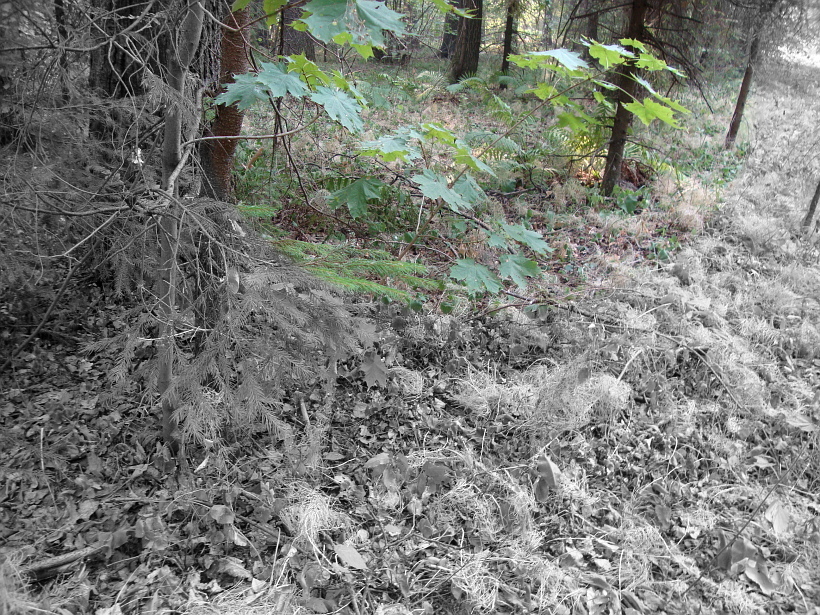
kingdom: Plantae
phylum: Tracheophyta
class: Magnoliopsida
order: Sapindales
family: Sapindaceae
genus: Acer
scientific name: Acer platanoides
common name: Norway maple
